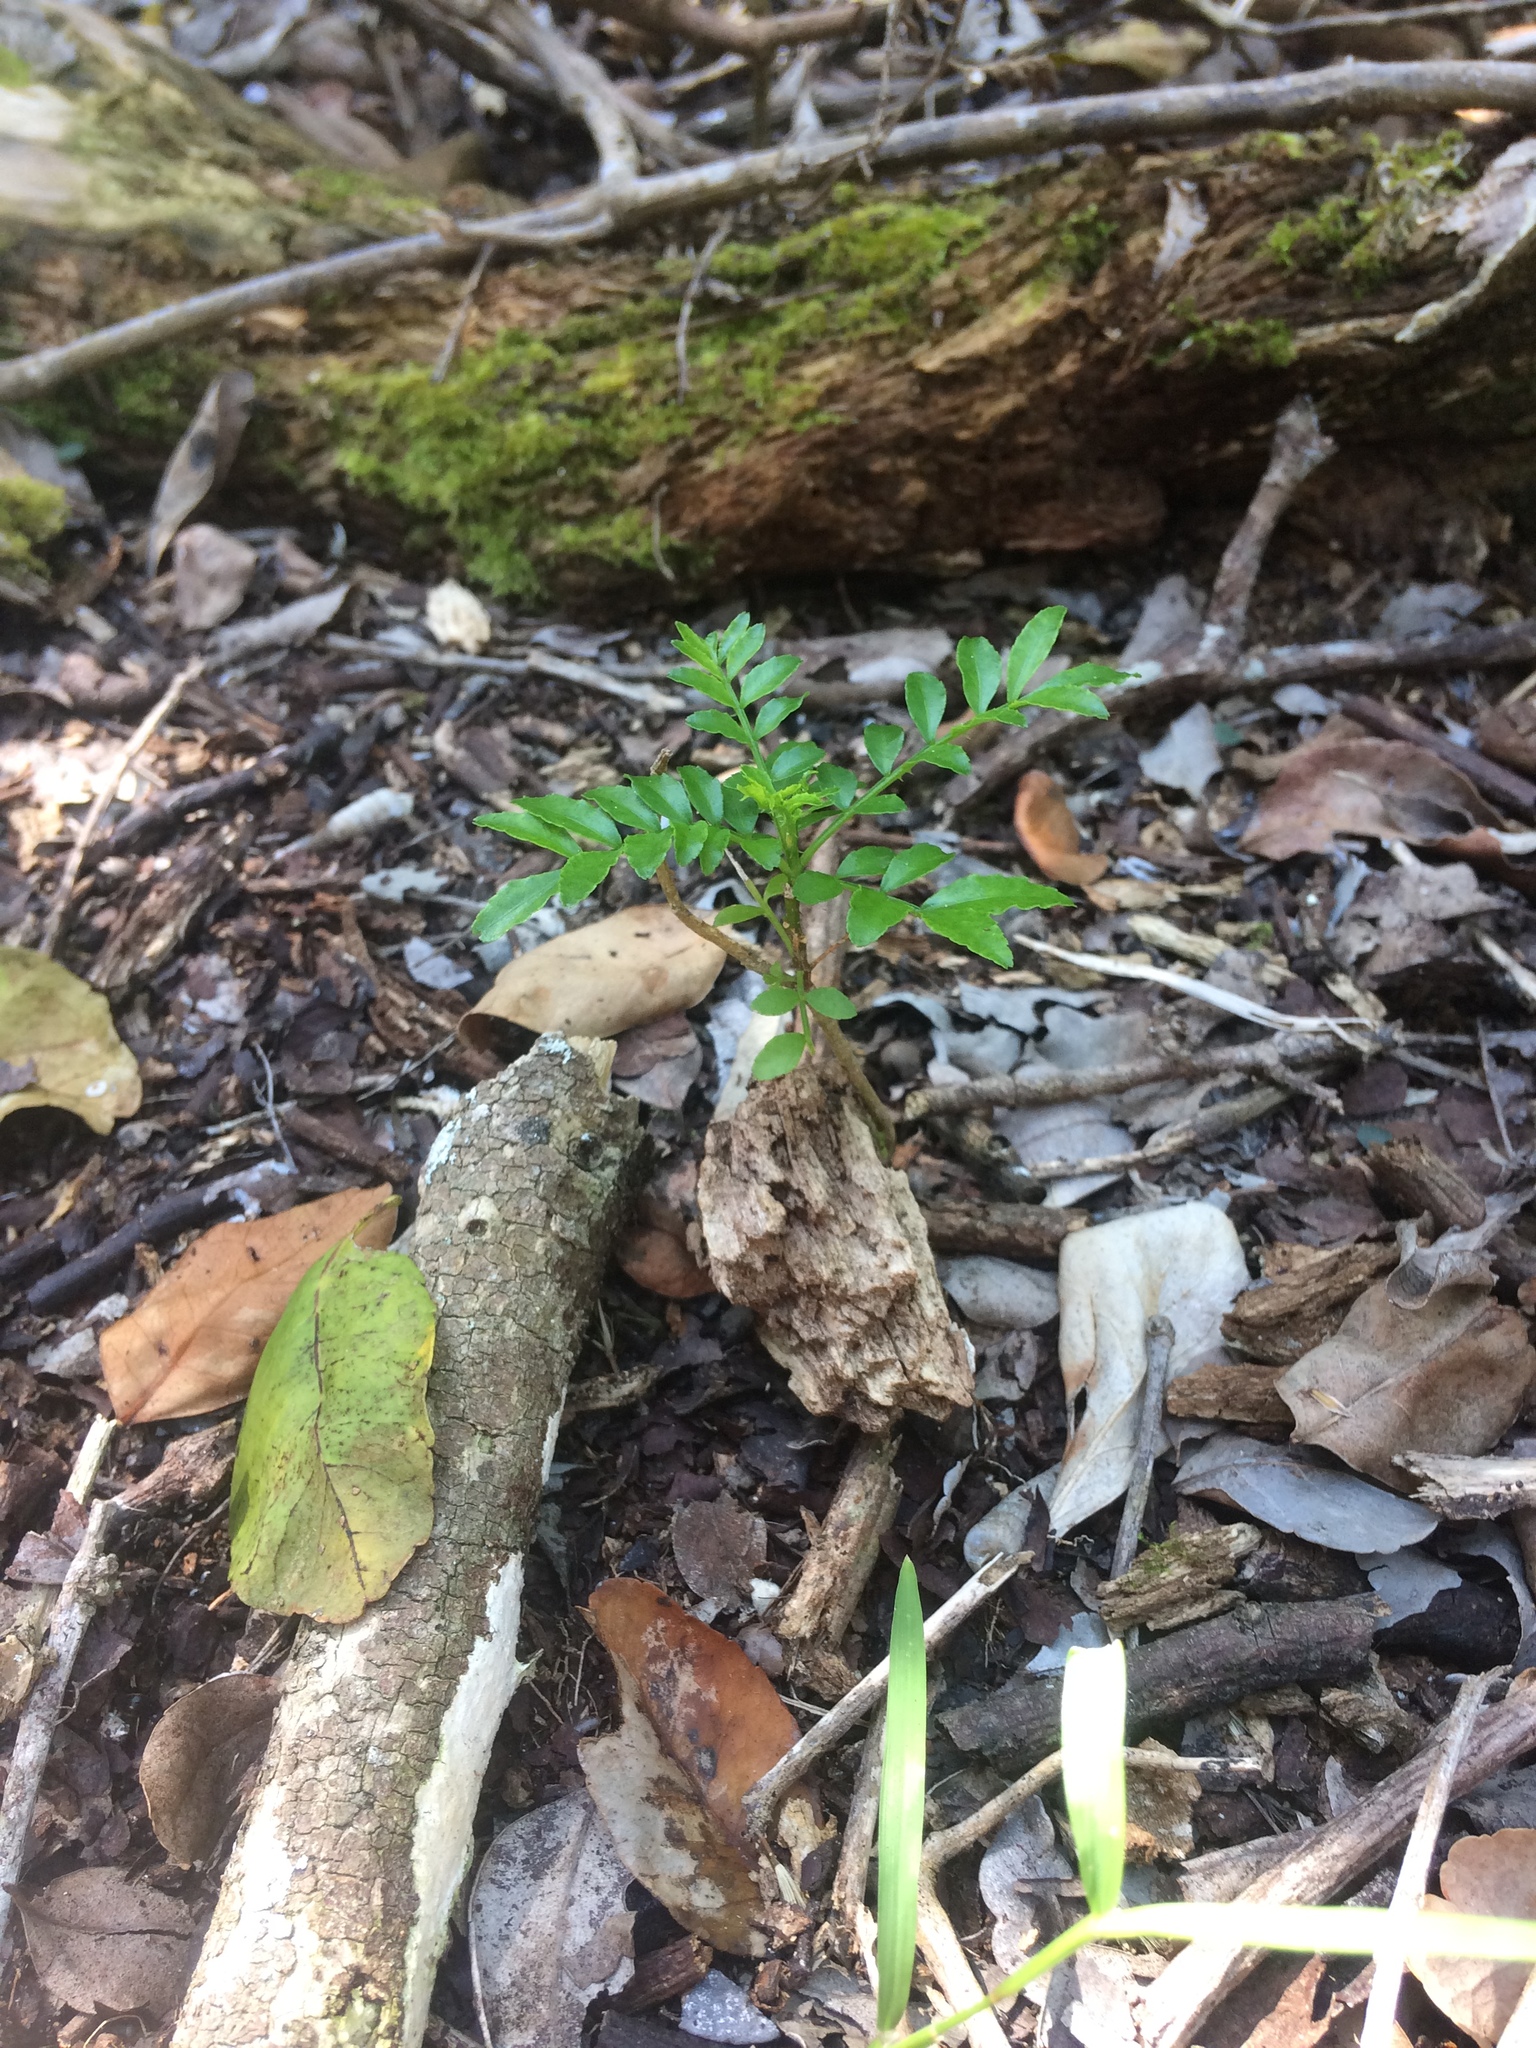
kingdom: Plantae
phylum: Tracheophyta
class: Magnoliopsida
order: Sapindales
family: Rutaceae
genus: Zanthoxylum
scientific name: Zanthoxylum capense
